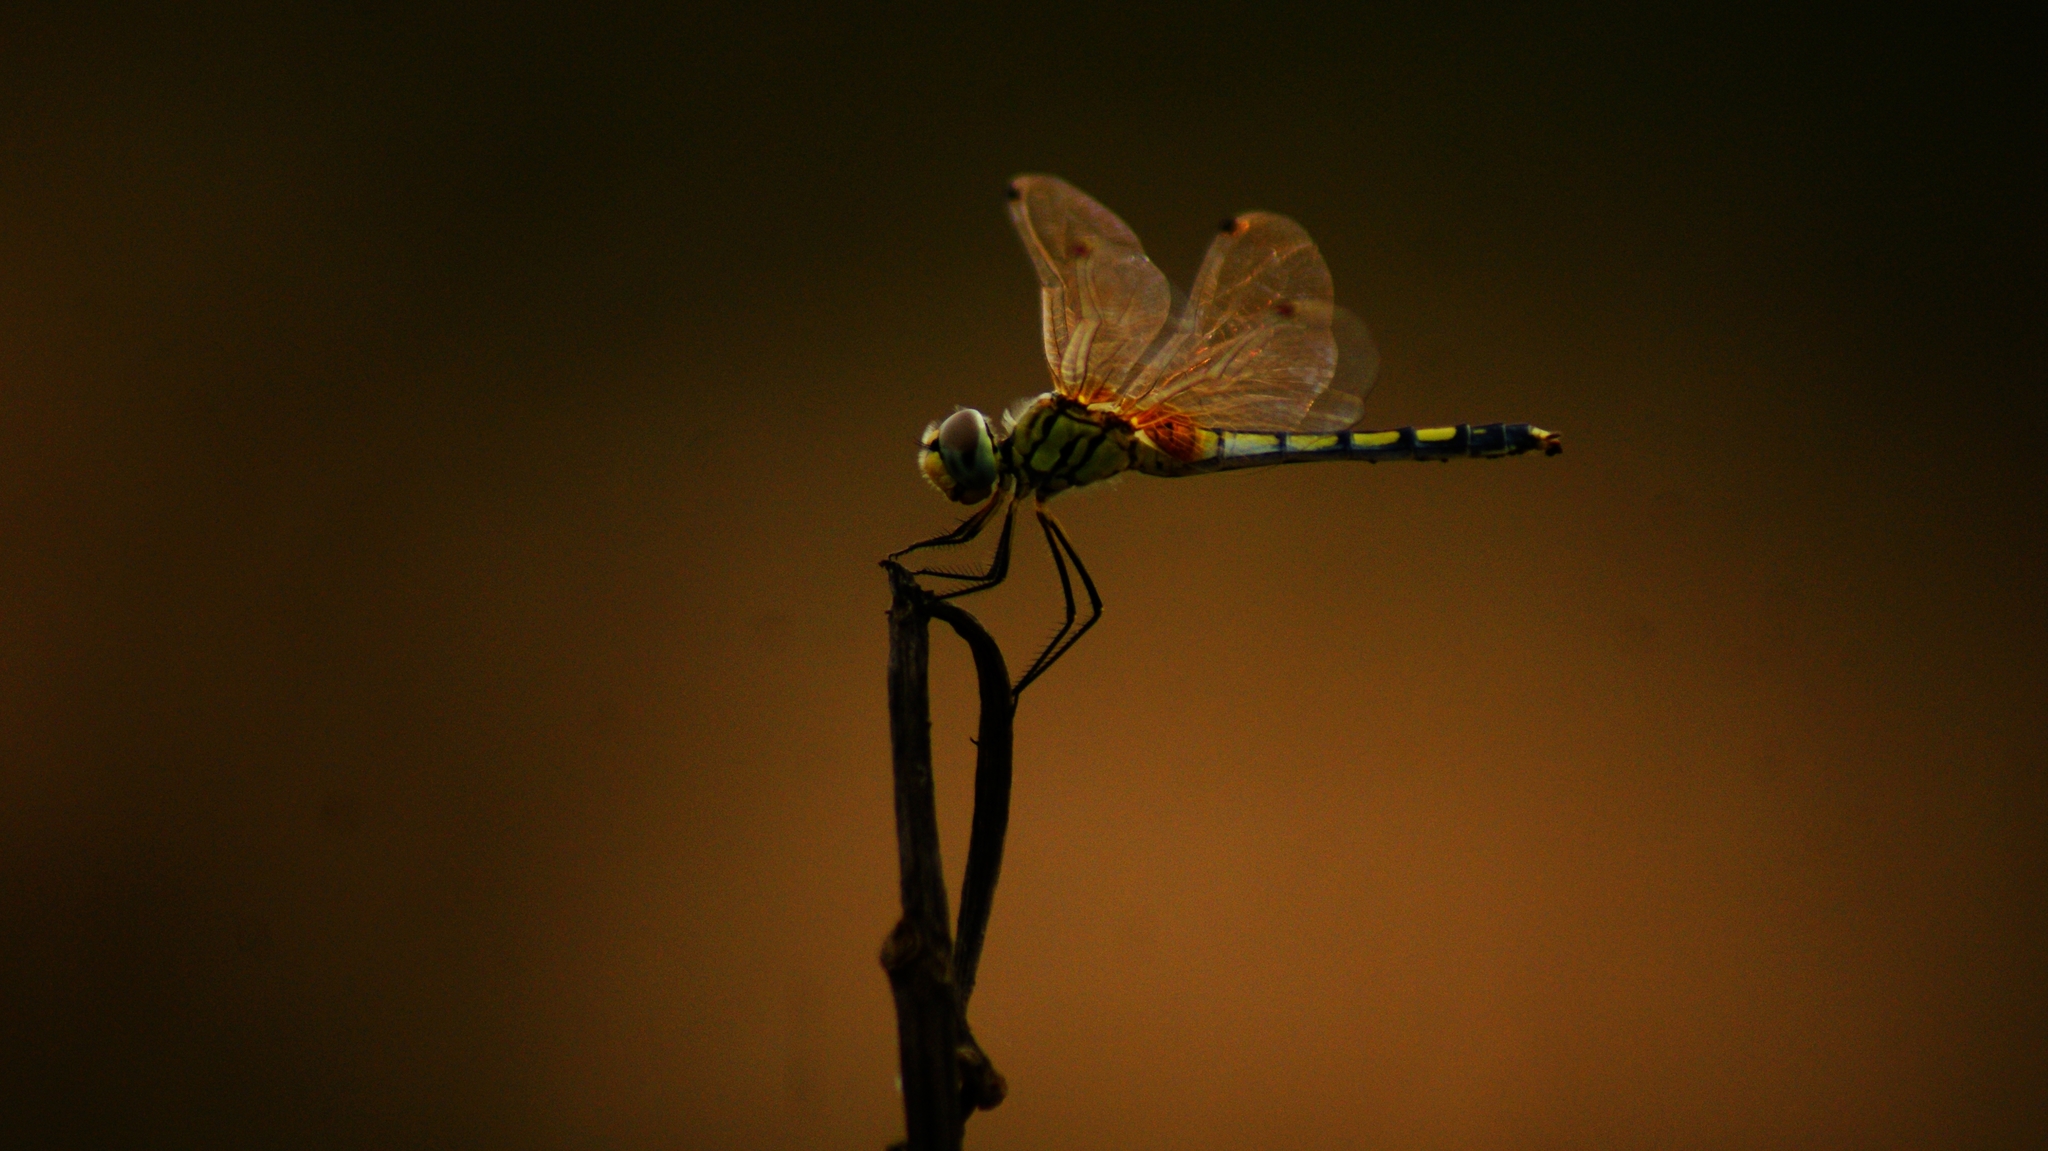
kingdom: Animalia
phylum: Arthropoda
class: Insecta
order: Odonata
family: Libellulidae
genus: Trithemis
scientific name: Trithemis pallidinervis
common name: Dancing dropwing
